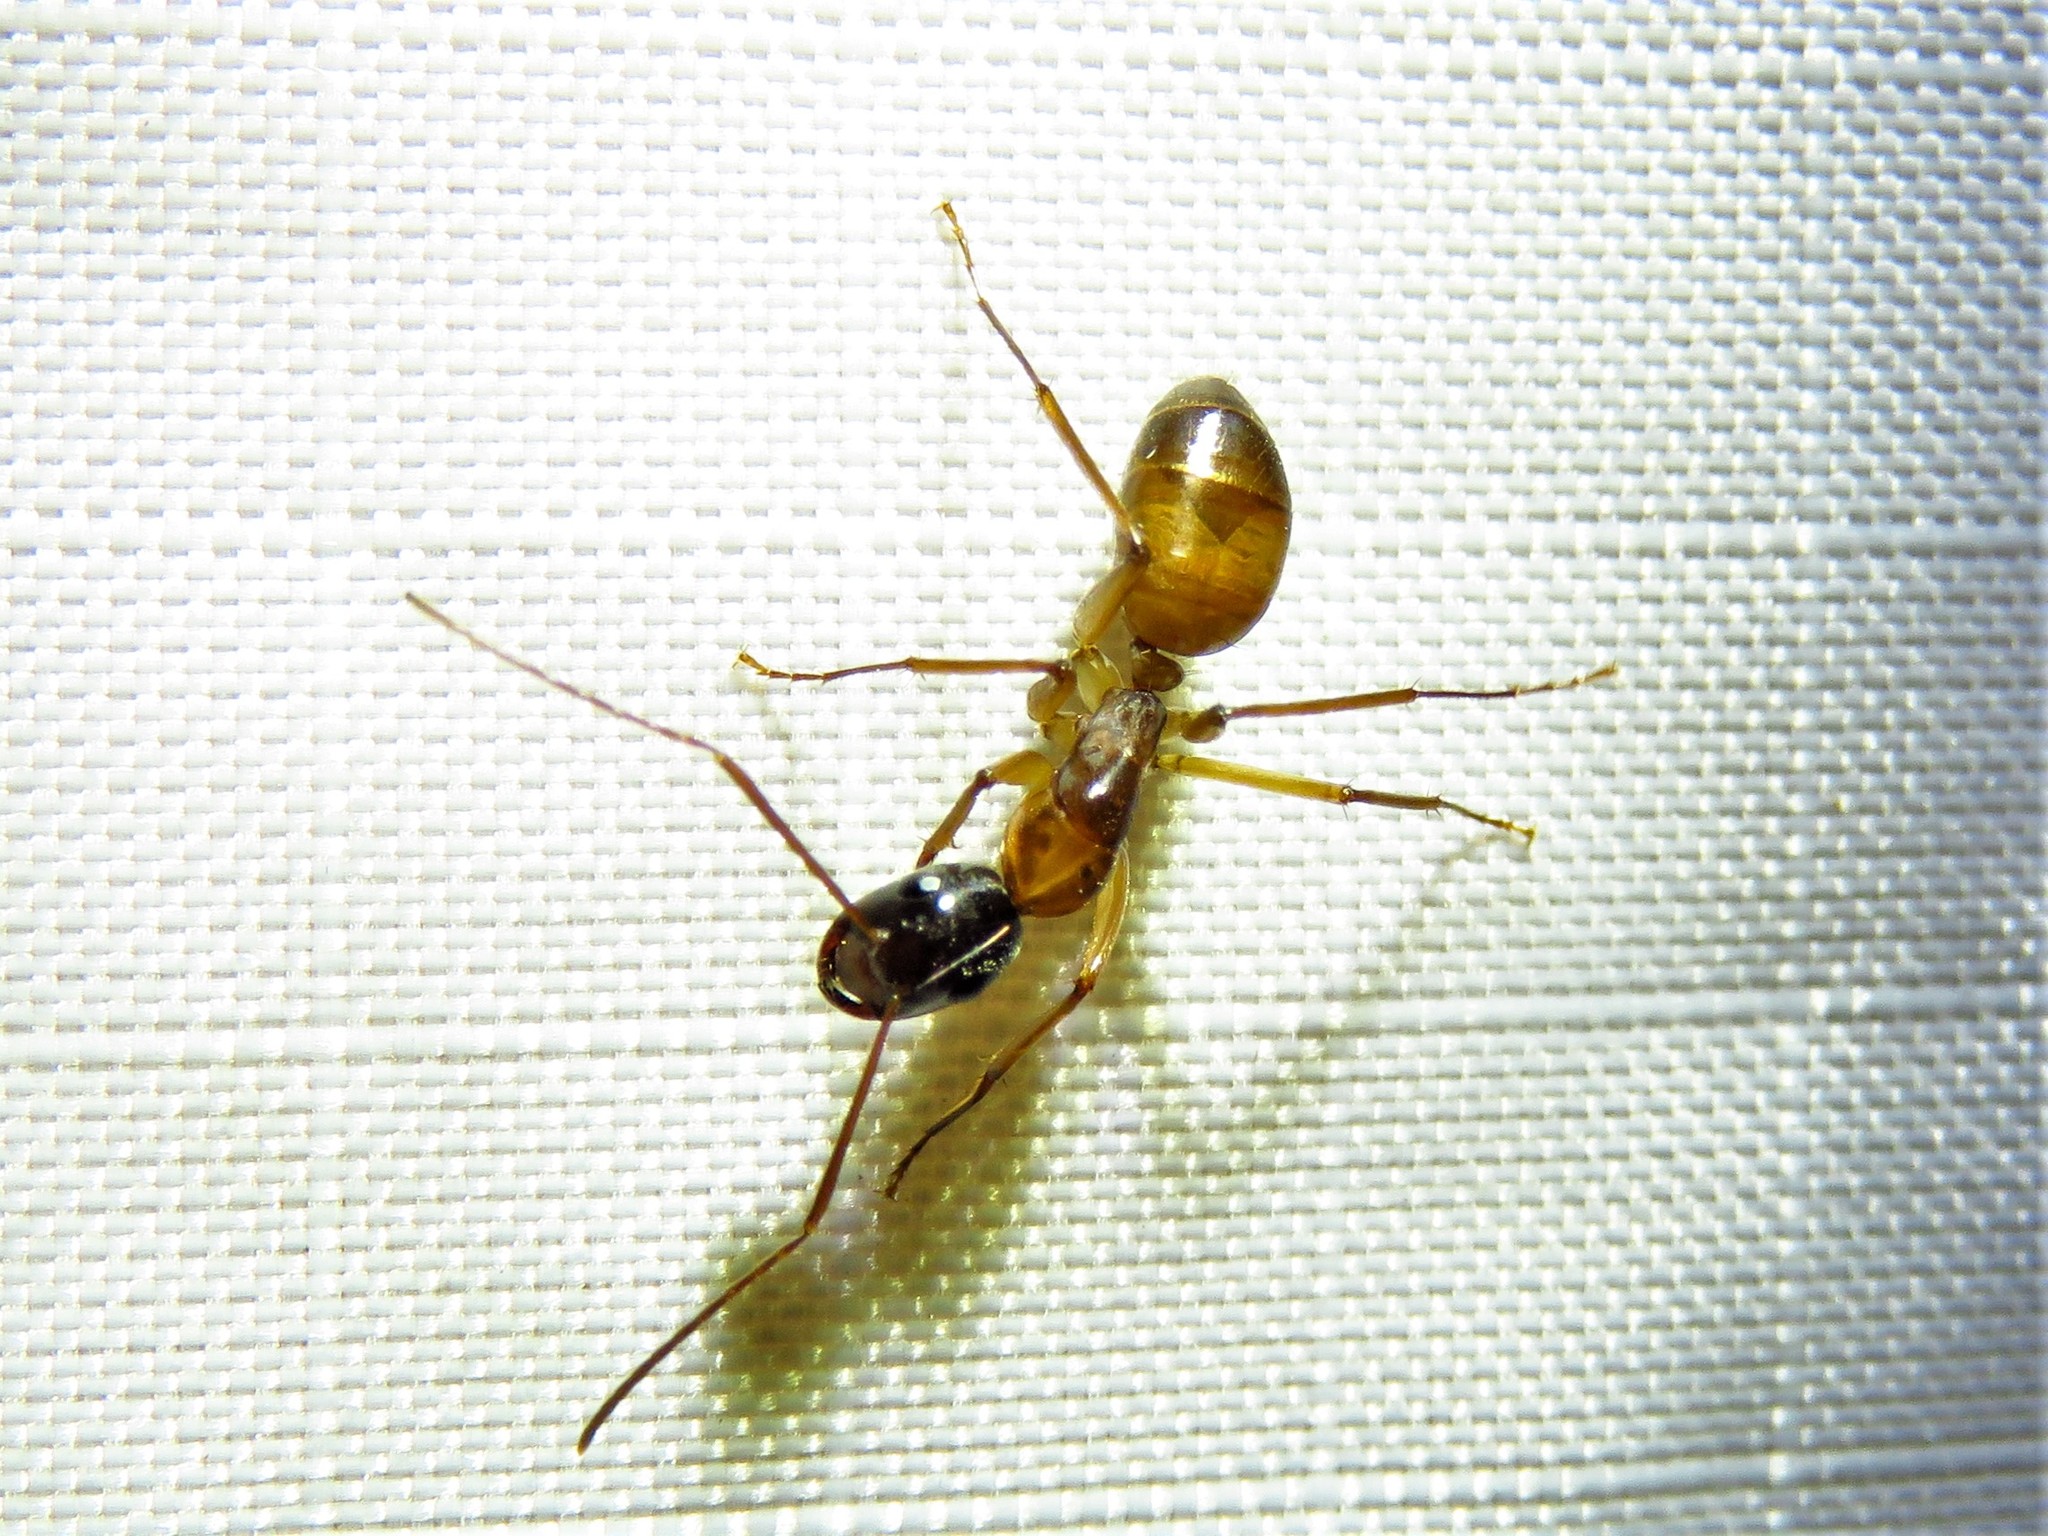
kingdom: Animalia
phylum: Arthropoda
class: Insecta
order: Hymenoptera
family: Formicidae
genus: Camponotus
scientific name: Camponotus americanus
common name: American carpenter ant
